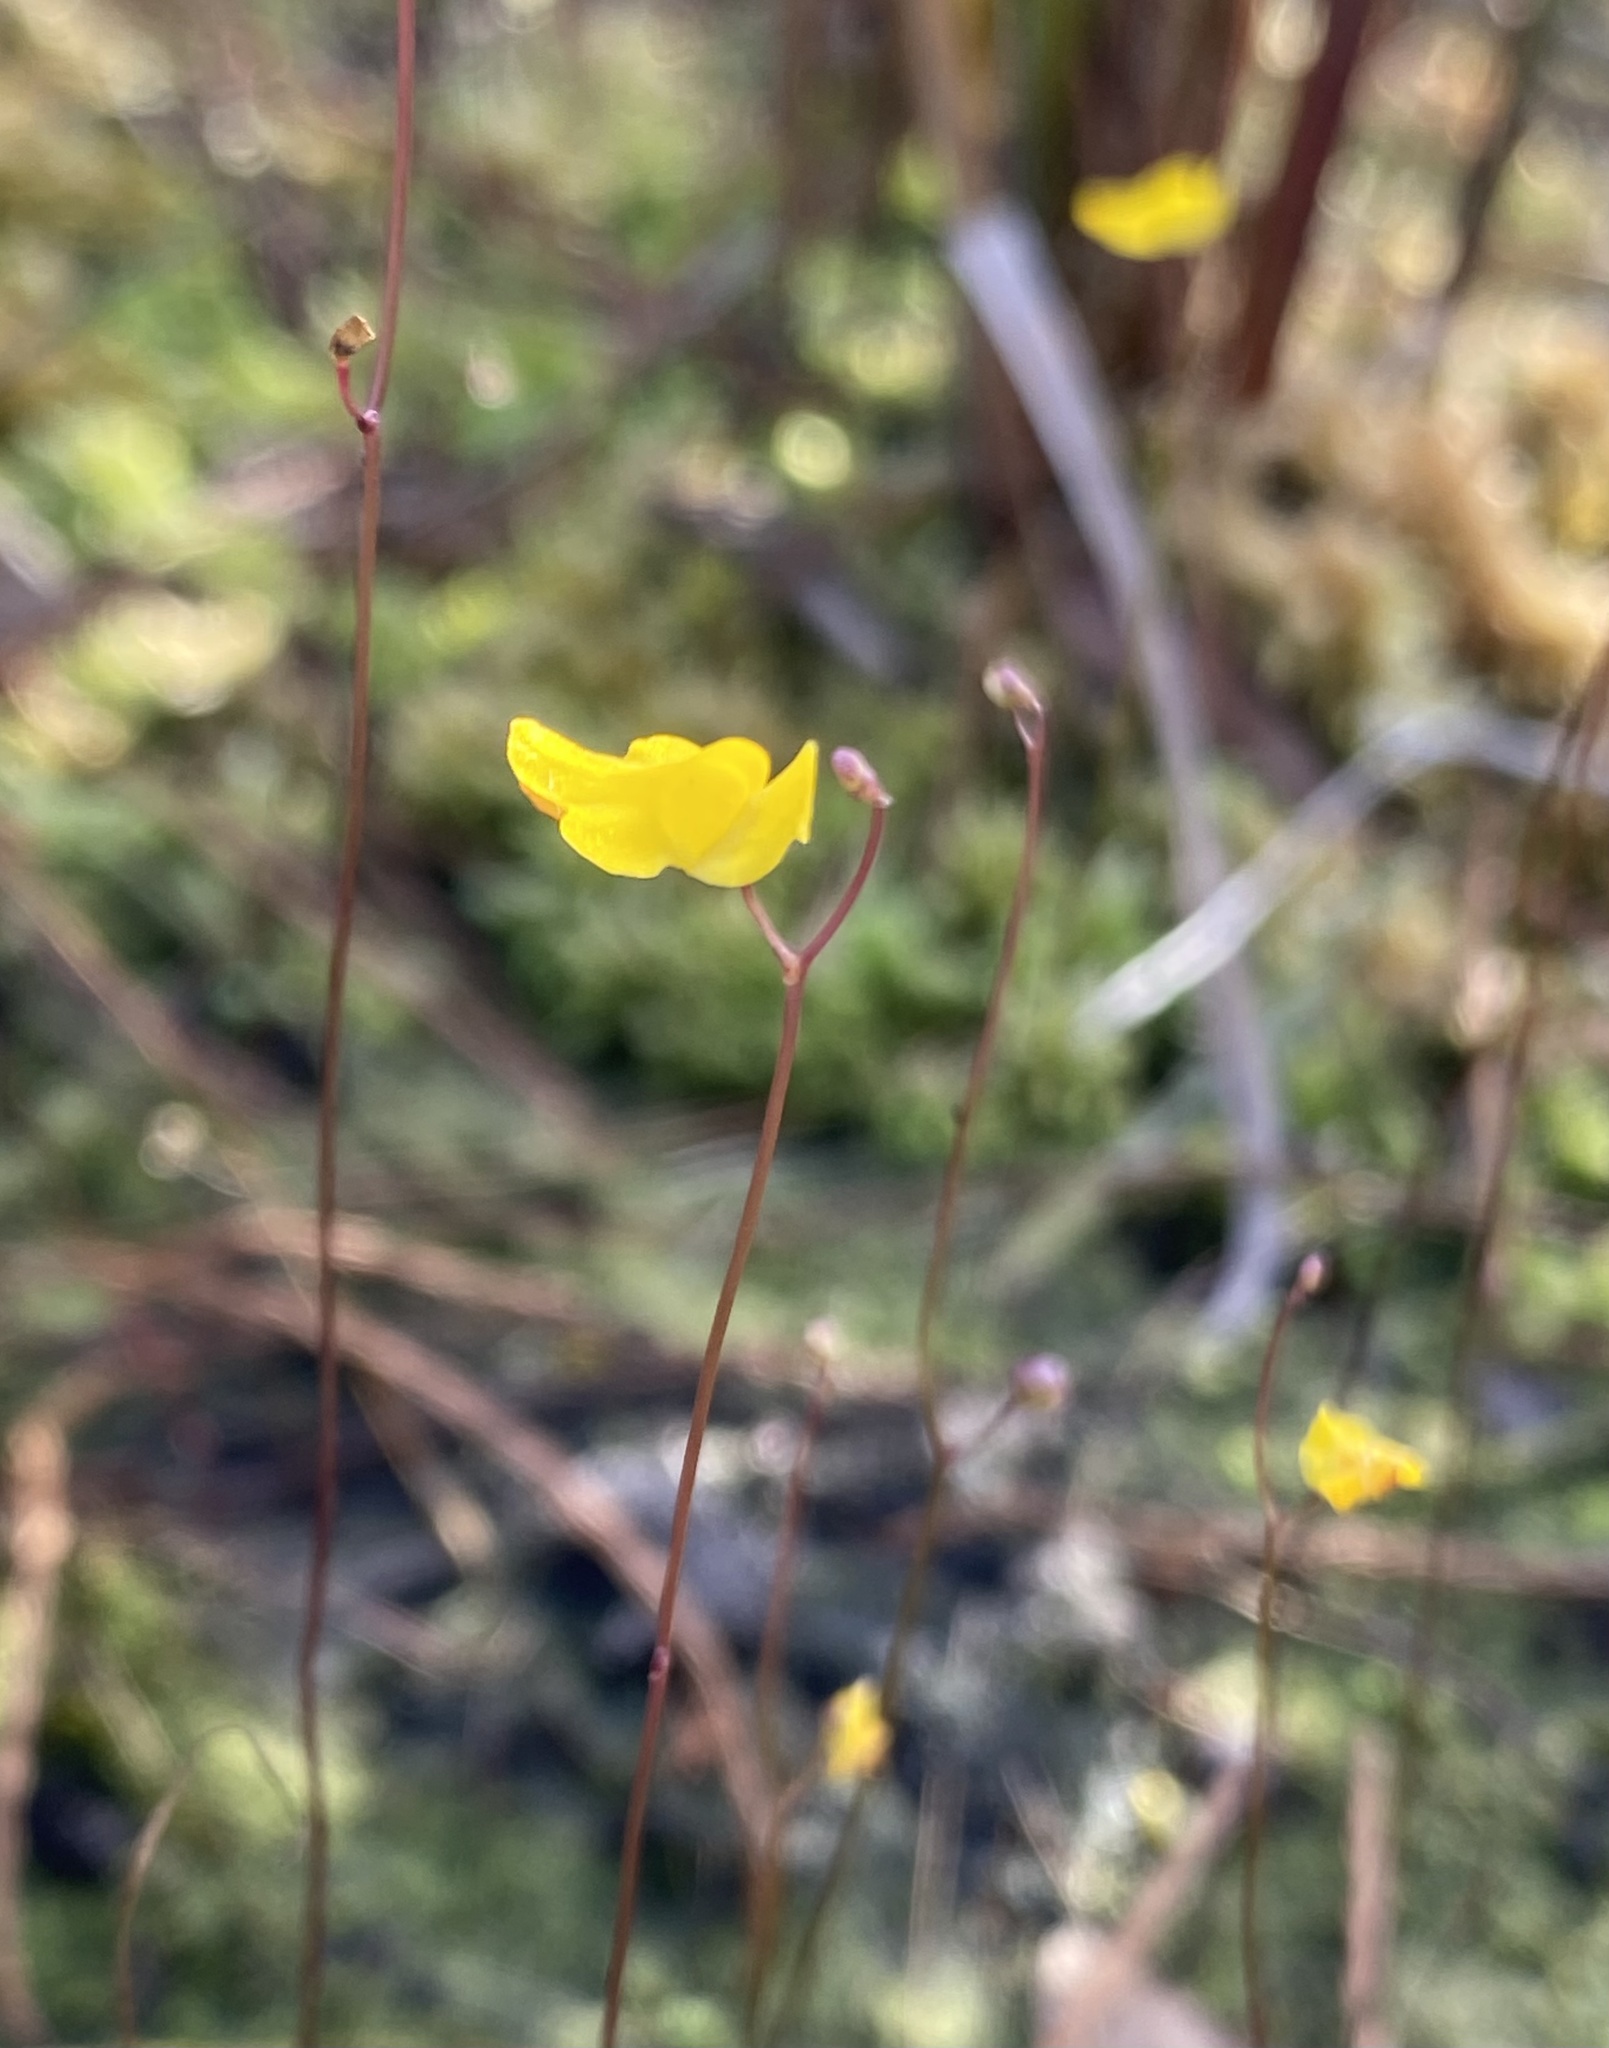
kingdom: Plantae
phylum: Tracheophyta
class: Magnoliopsida
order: Lamiales
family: Lentibulariaceae
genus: Utricularia
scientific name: Utricularia subulata
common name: Tiny bladderwort
